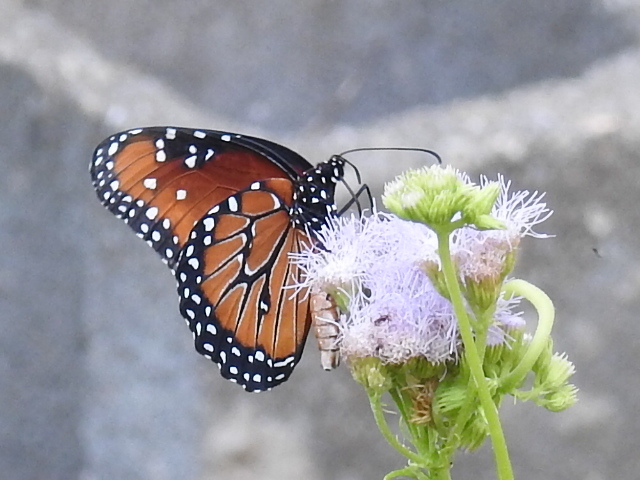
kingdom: Animalia
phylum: Arthropoda
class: Insecta
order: Lepidoptera
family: Nymphalidae
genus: Danaus
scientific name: Danaus gilippus
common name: Queen
